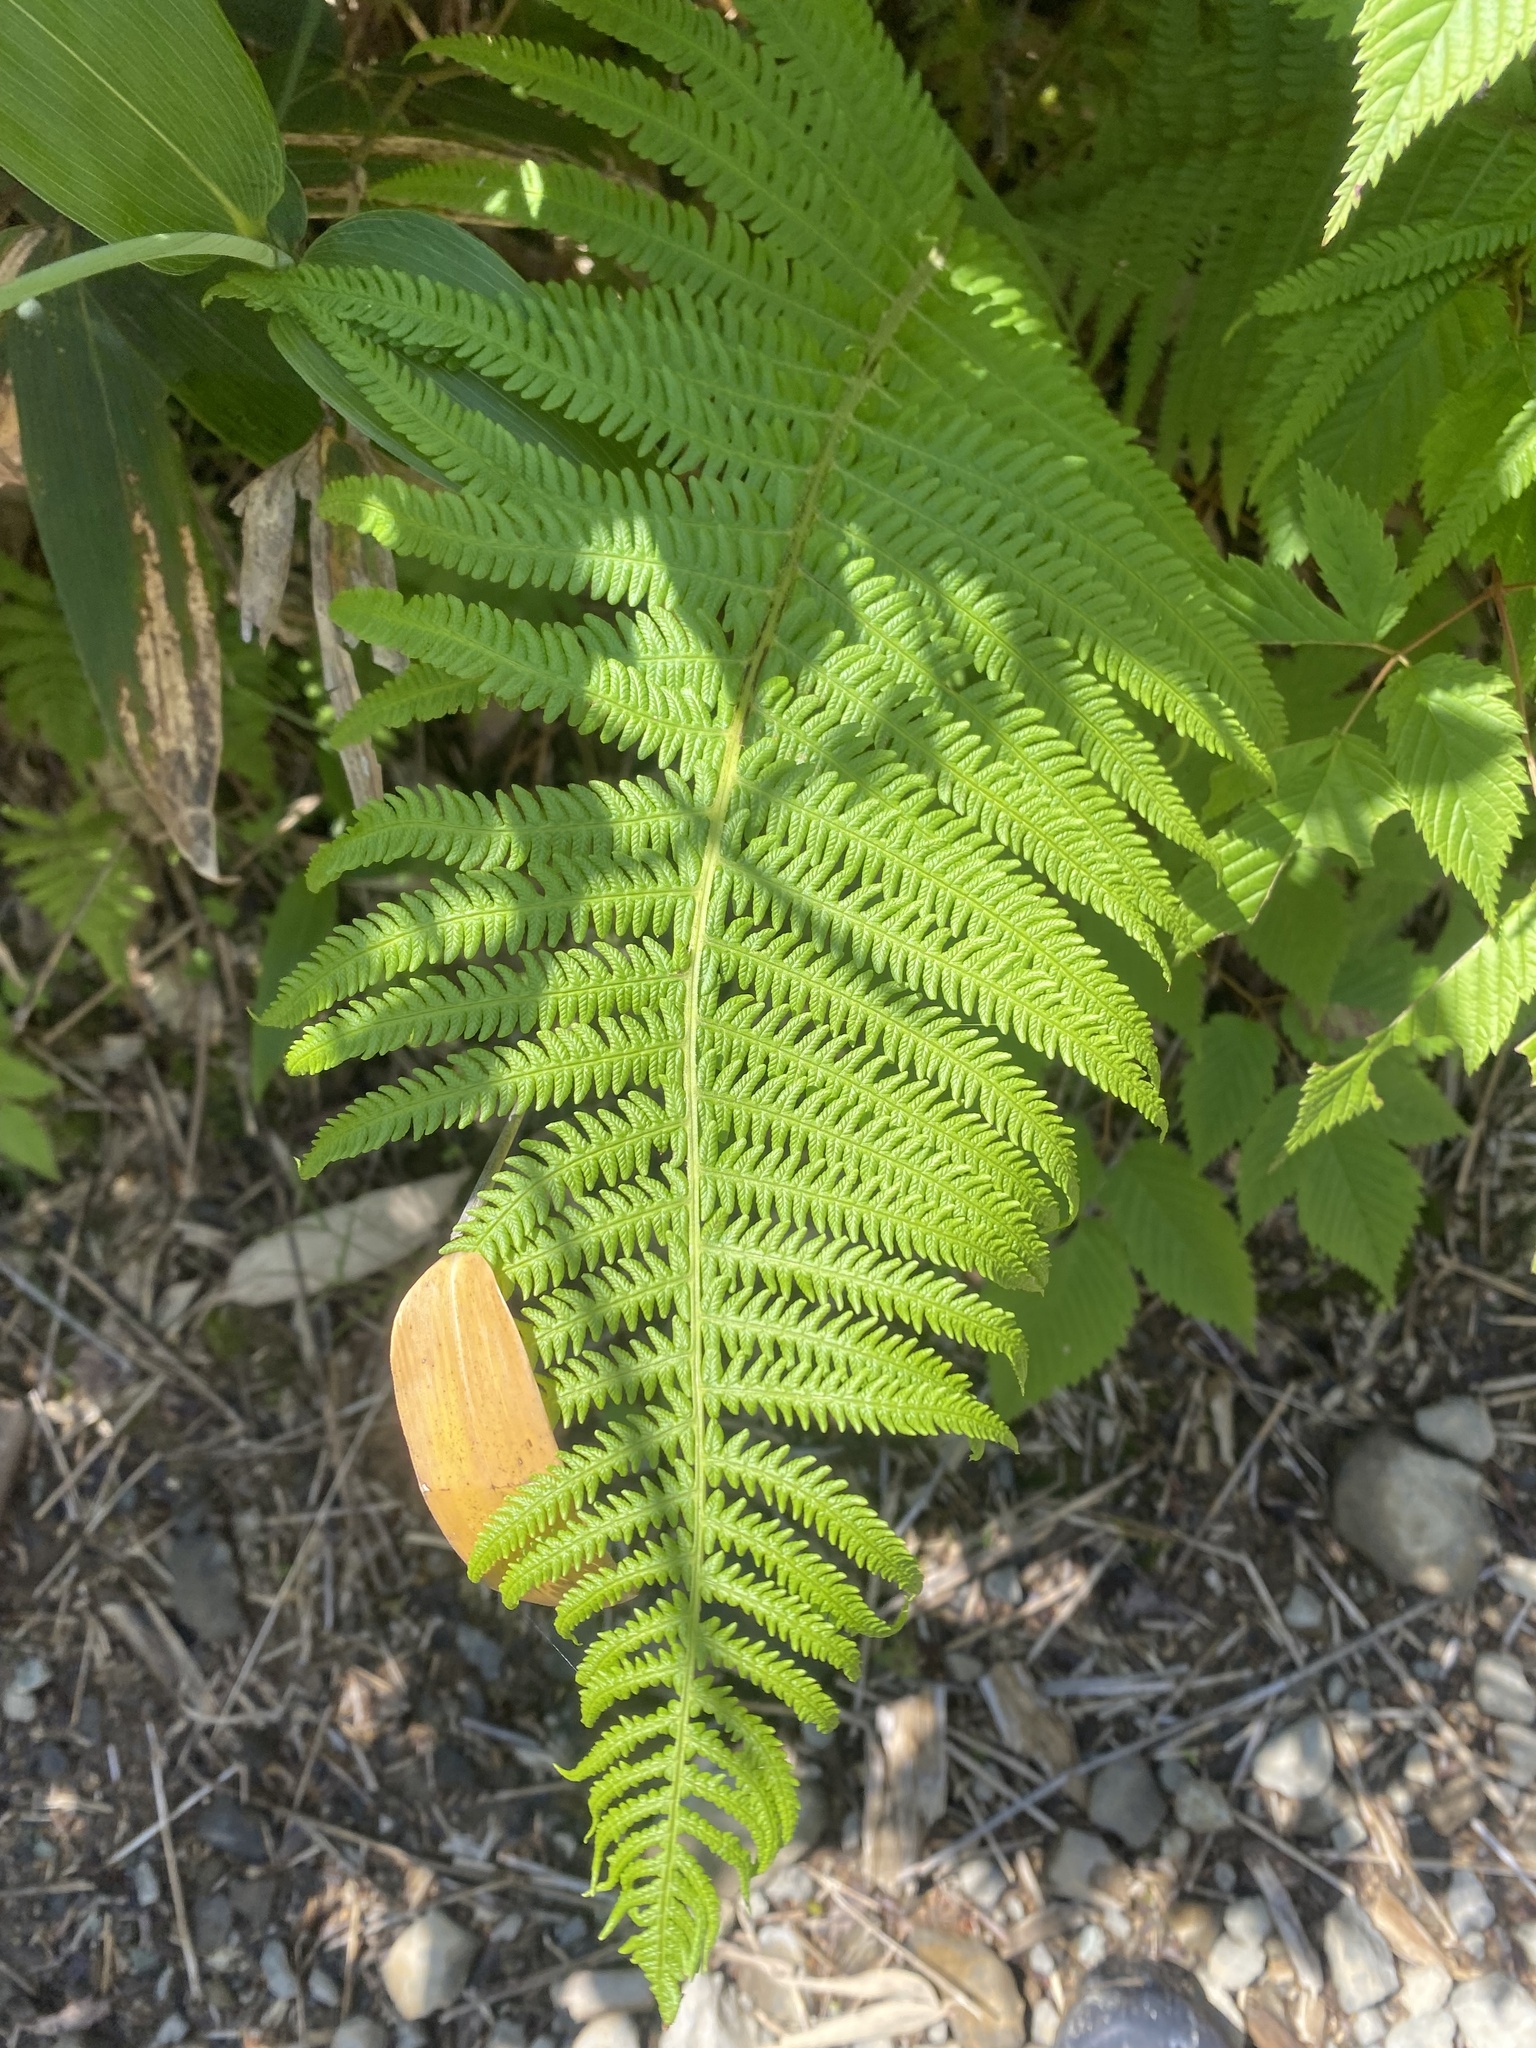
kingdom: Plantae
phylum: Tracheophyta
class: Polypodiopsida
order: Polypodiales
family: Thelypteridaceae
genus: Oreopteris
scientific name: Oreopteris quelpartensis
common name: Mountain fern
